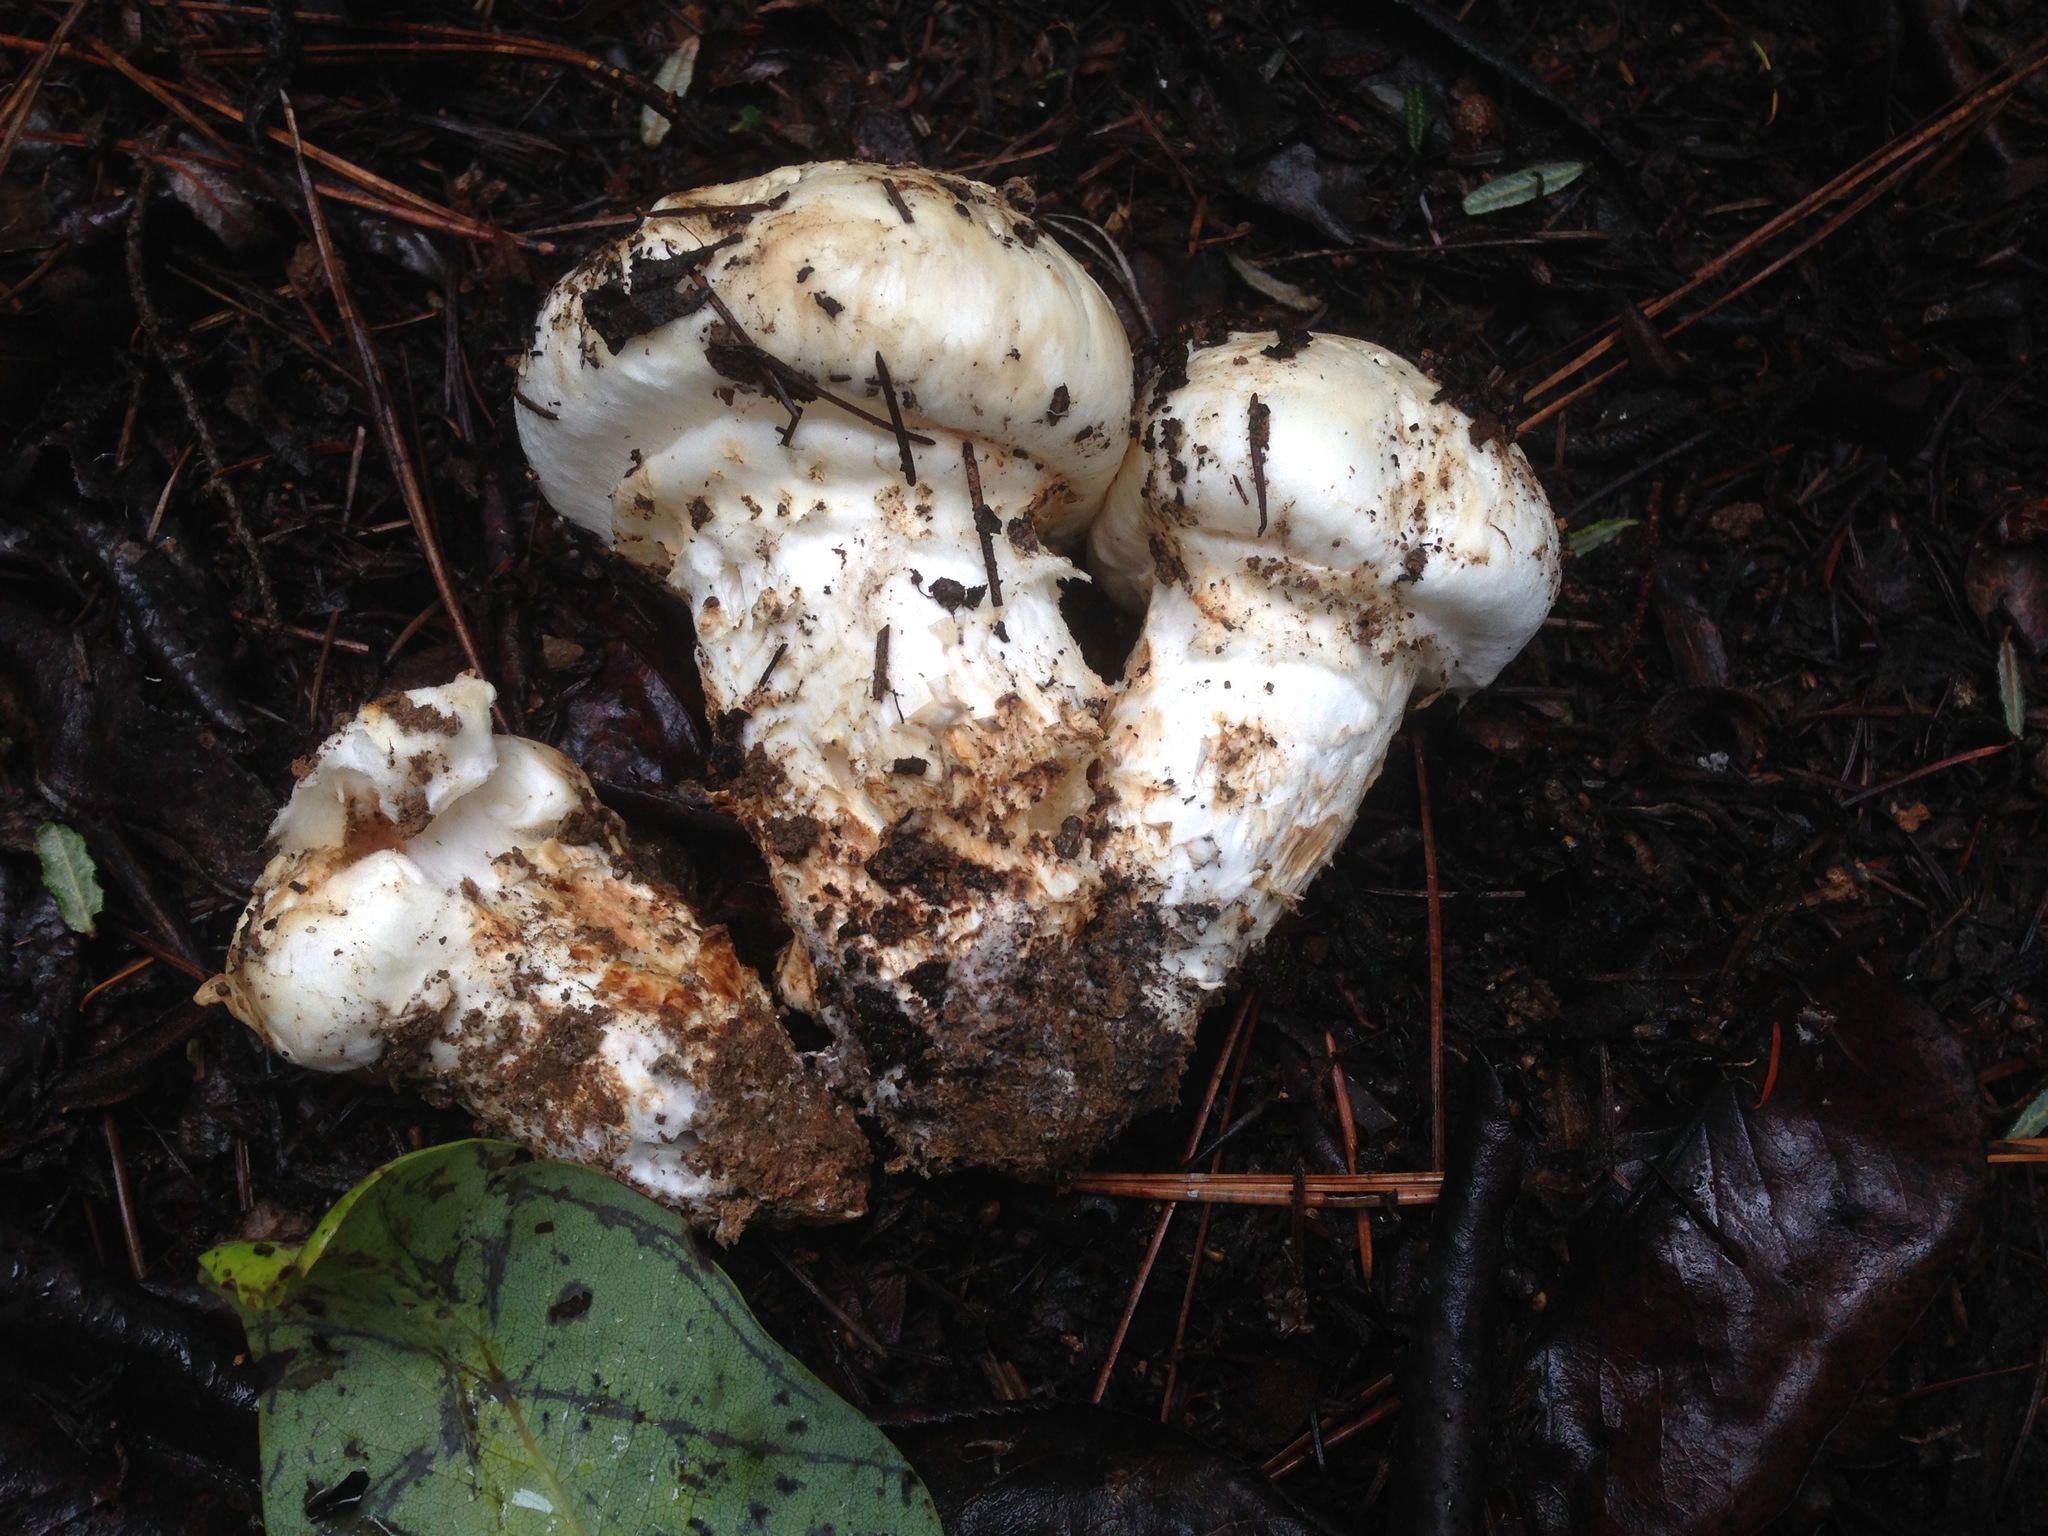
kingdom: Fungi
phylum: Basidiomycota
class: Agaricomycetes
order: Agaricales
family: Tricholomataceae
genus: Tricholoma
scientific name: Tricholoma murrillianum
